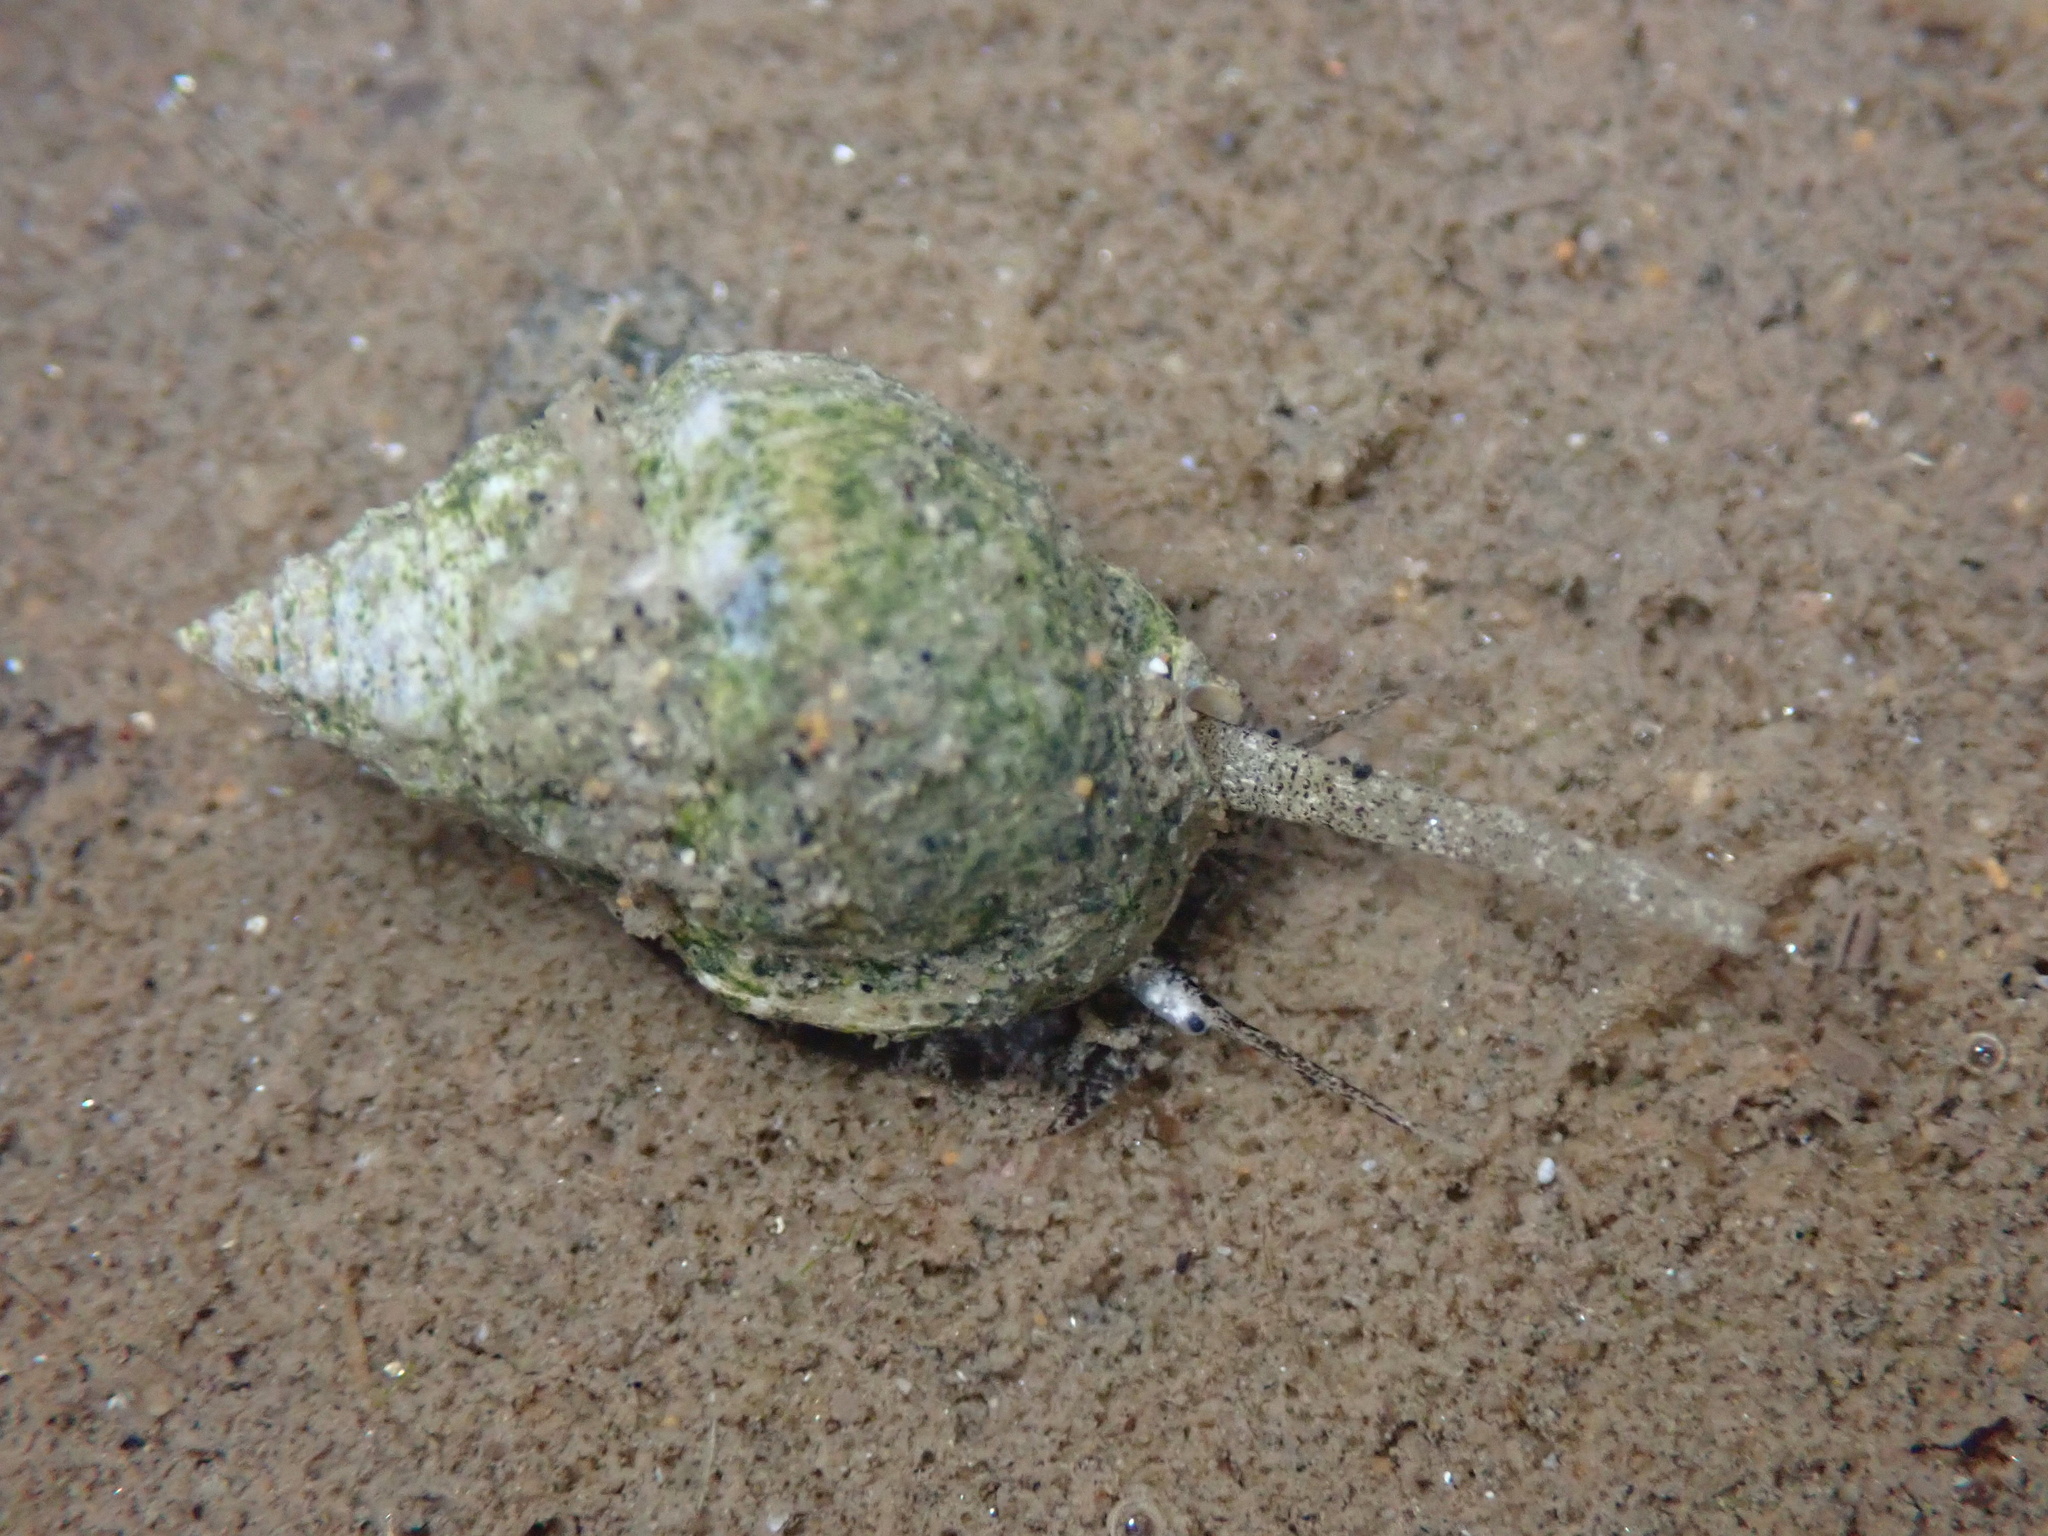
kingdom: Animalia
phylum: Mollusca
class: Gastropoda
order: Neogastropoda
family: Nassariidae
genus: Phrontis
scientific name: Phrontis tiarula
